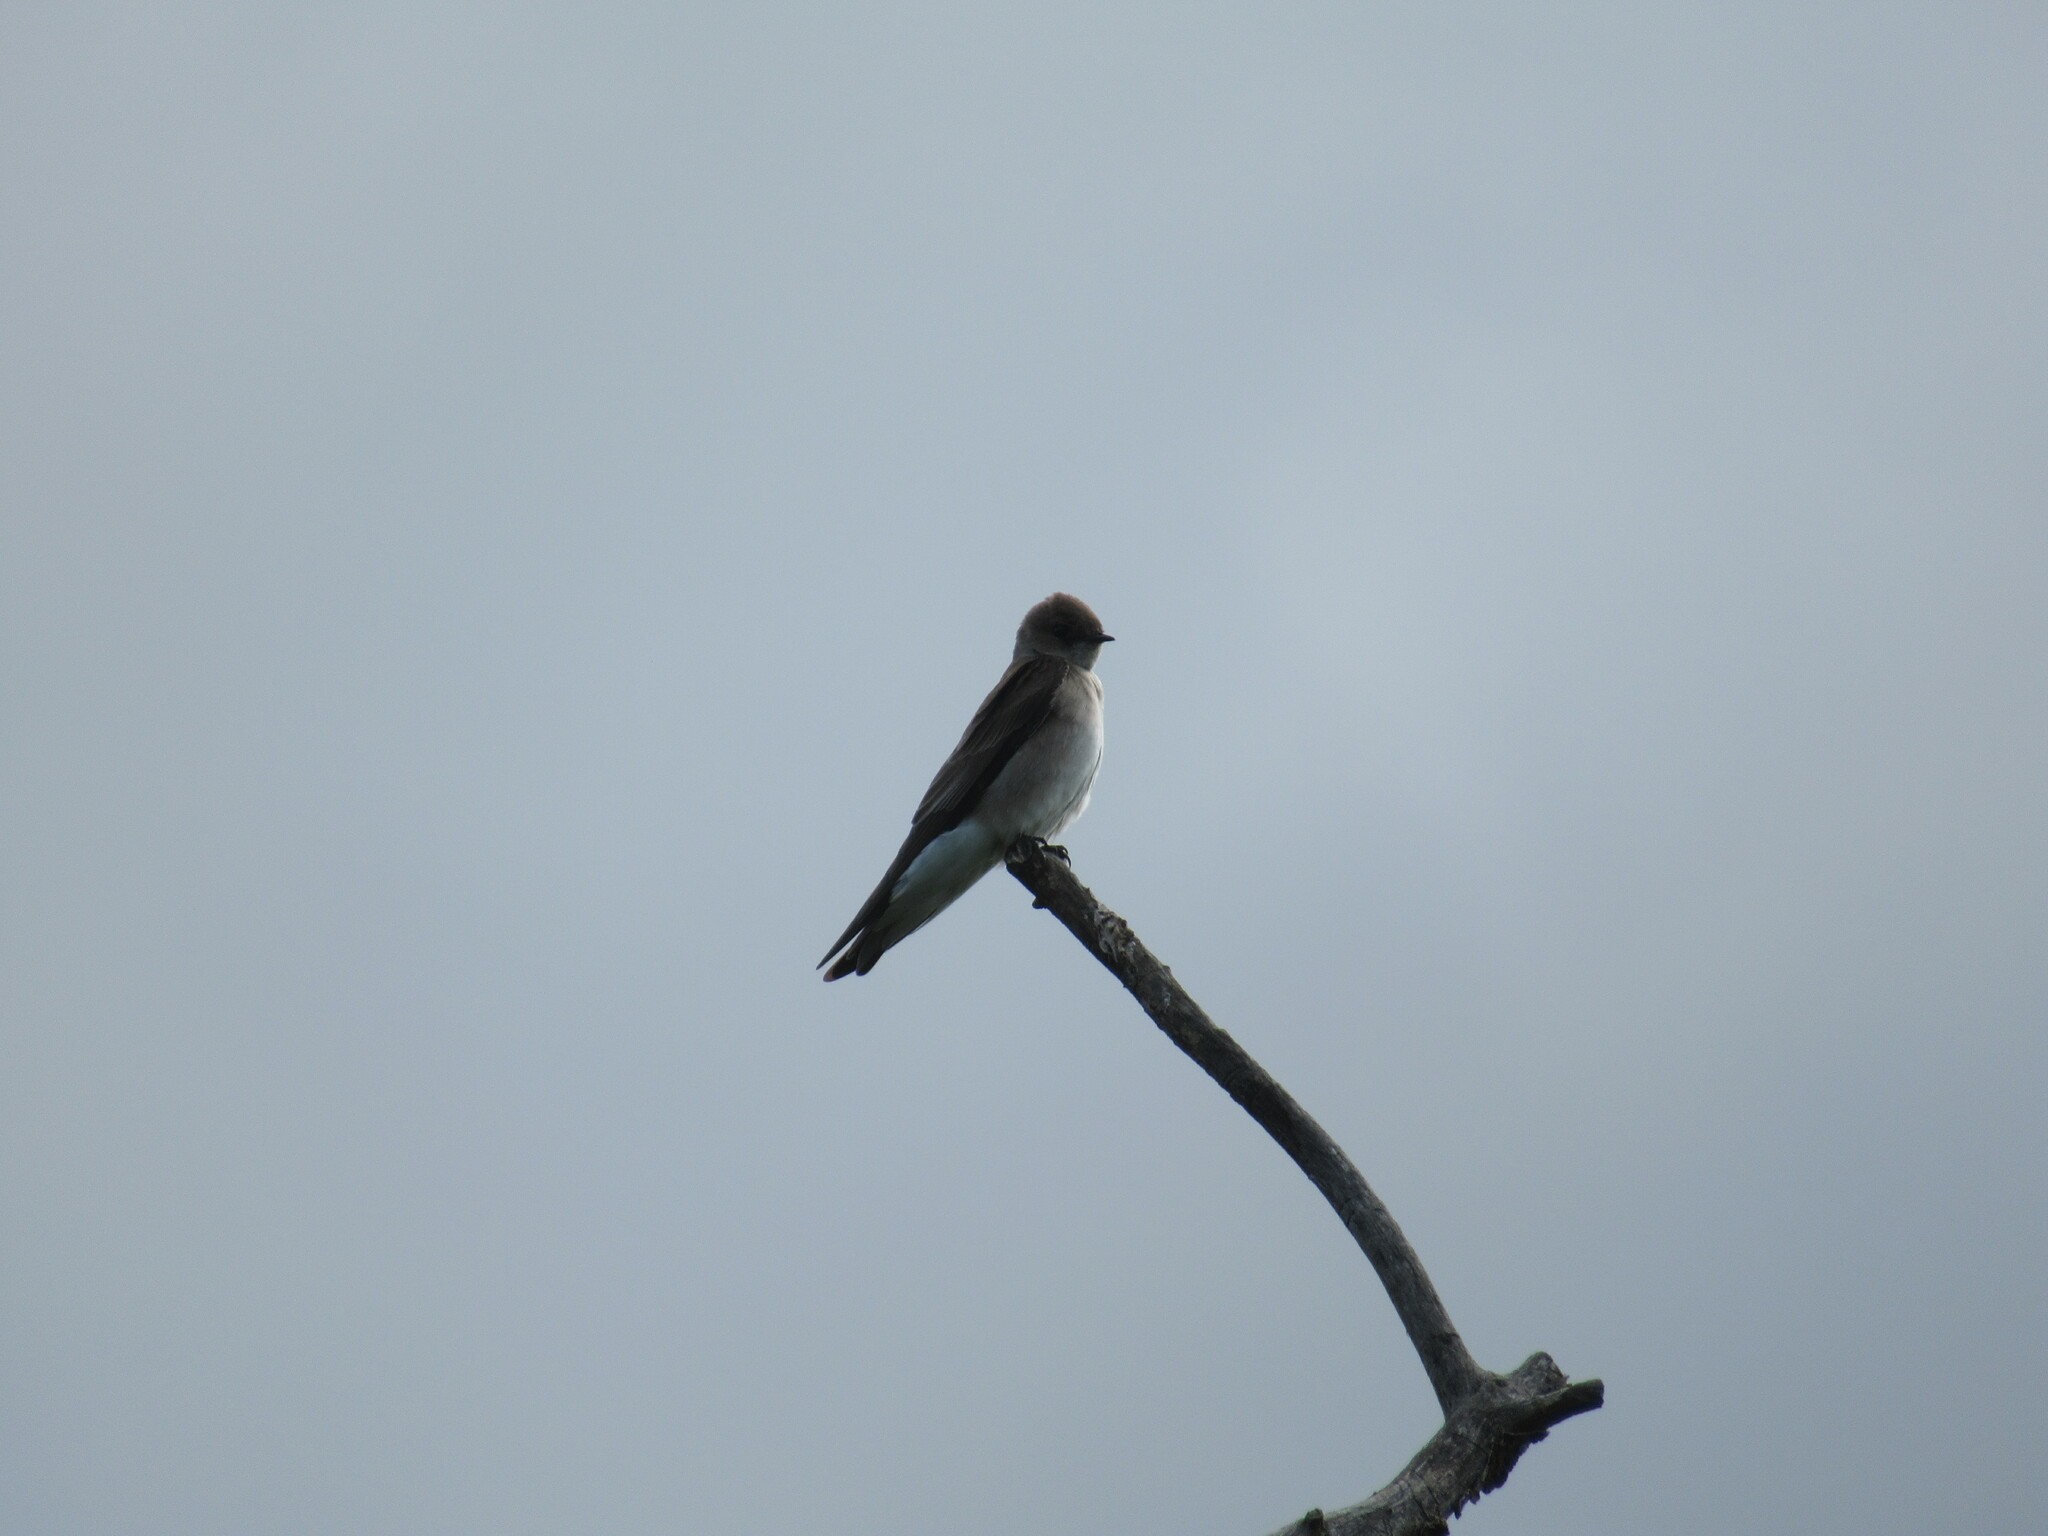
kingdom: Animalia
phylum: Chordata
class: Aves
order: Passeriformes
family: Hirundinidae
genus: Stelgidopteryx
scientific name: Stelgidopteryx serripennis
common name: Northern rough-winged swallow
